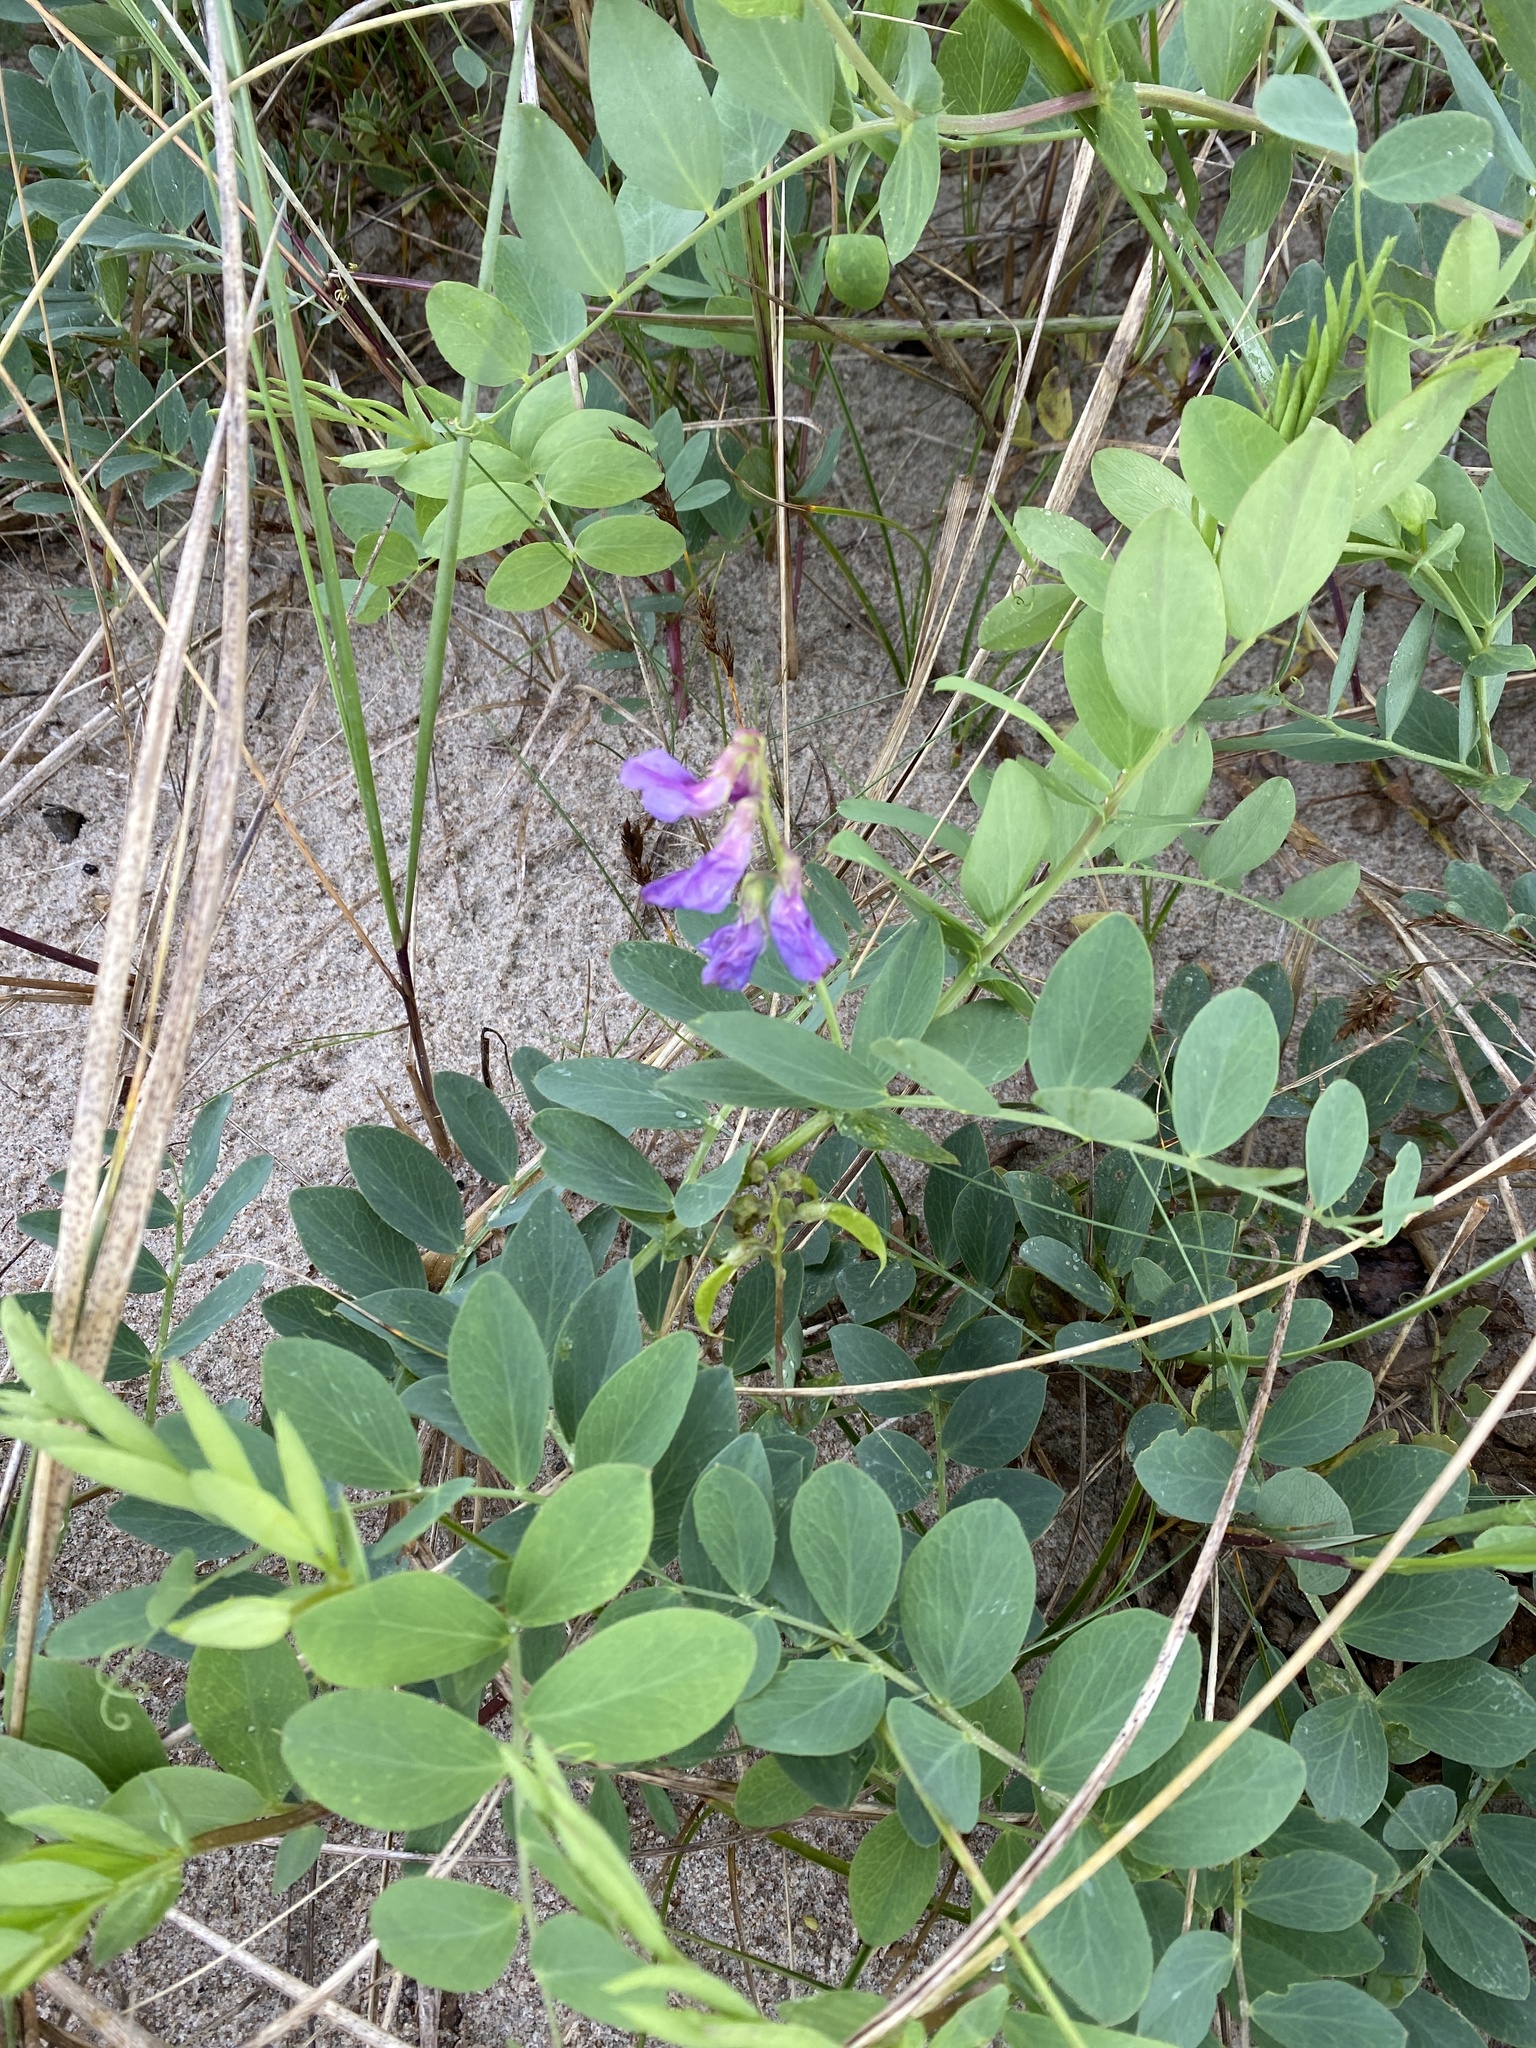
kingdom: Plantae
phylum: Tracheophyta
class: Magnoliopsida
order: Fabales
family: Fabaceae
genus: Lathyrus
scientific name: Lathyrus japonicus
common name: Sea pea
